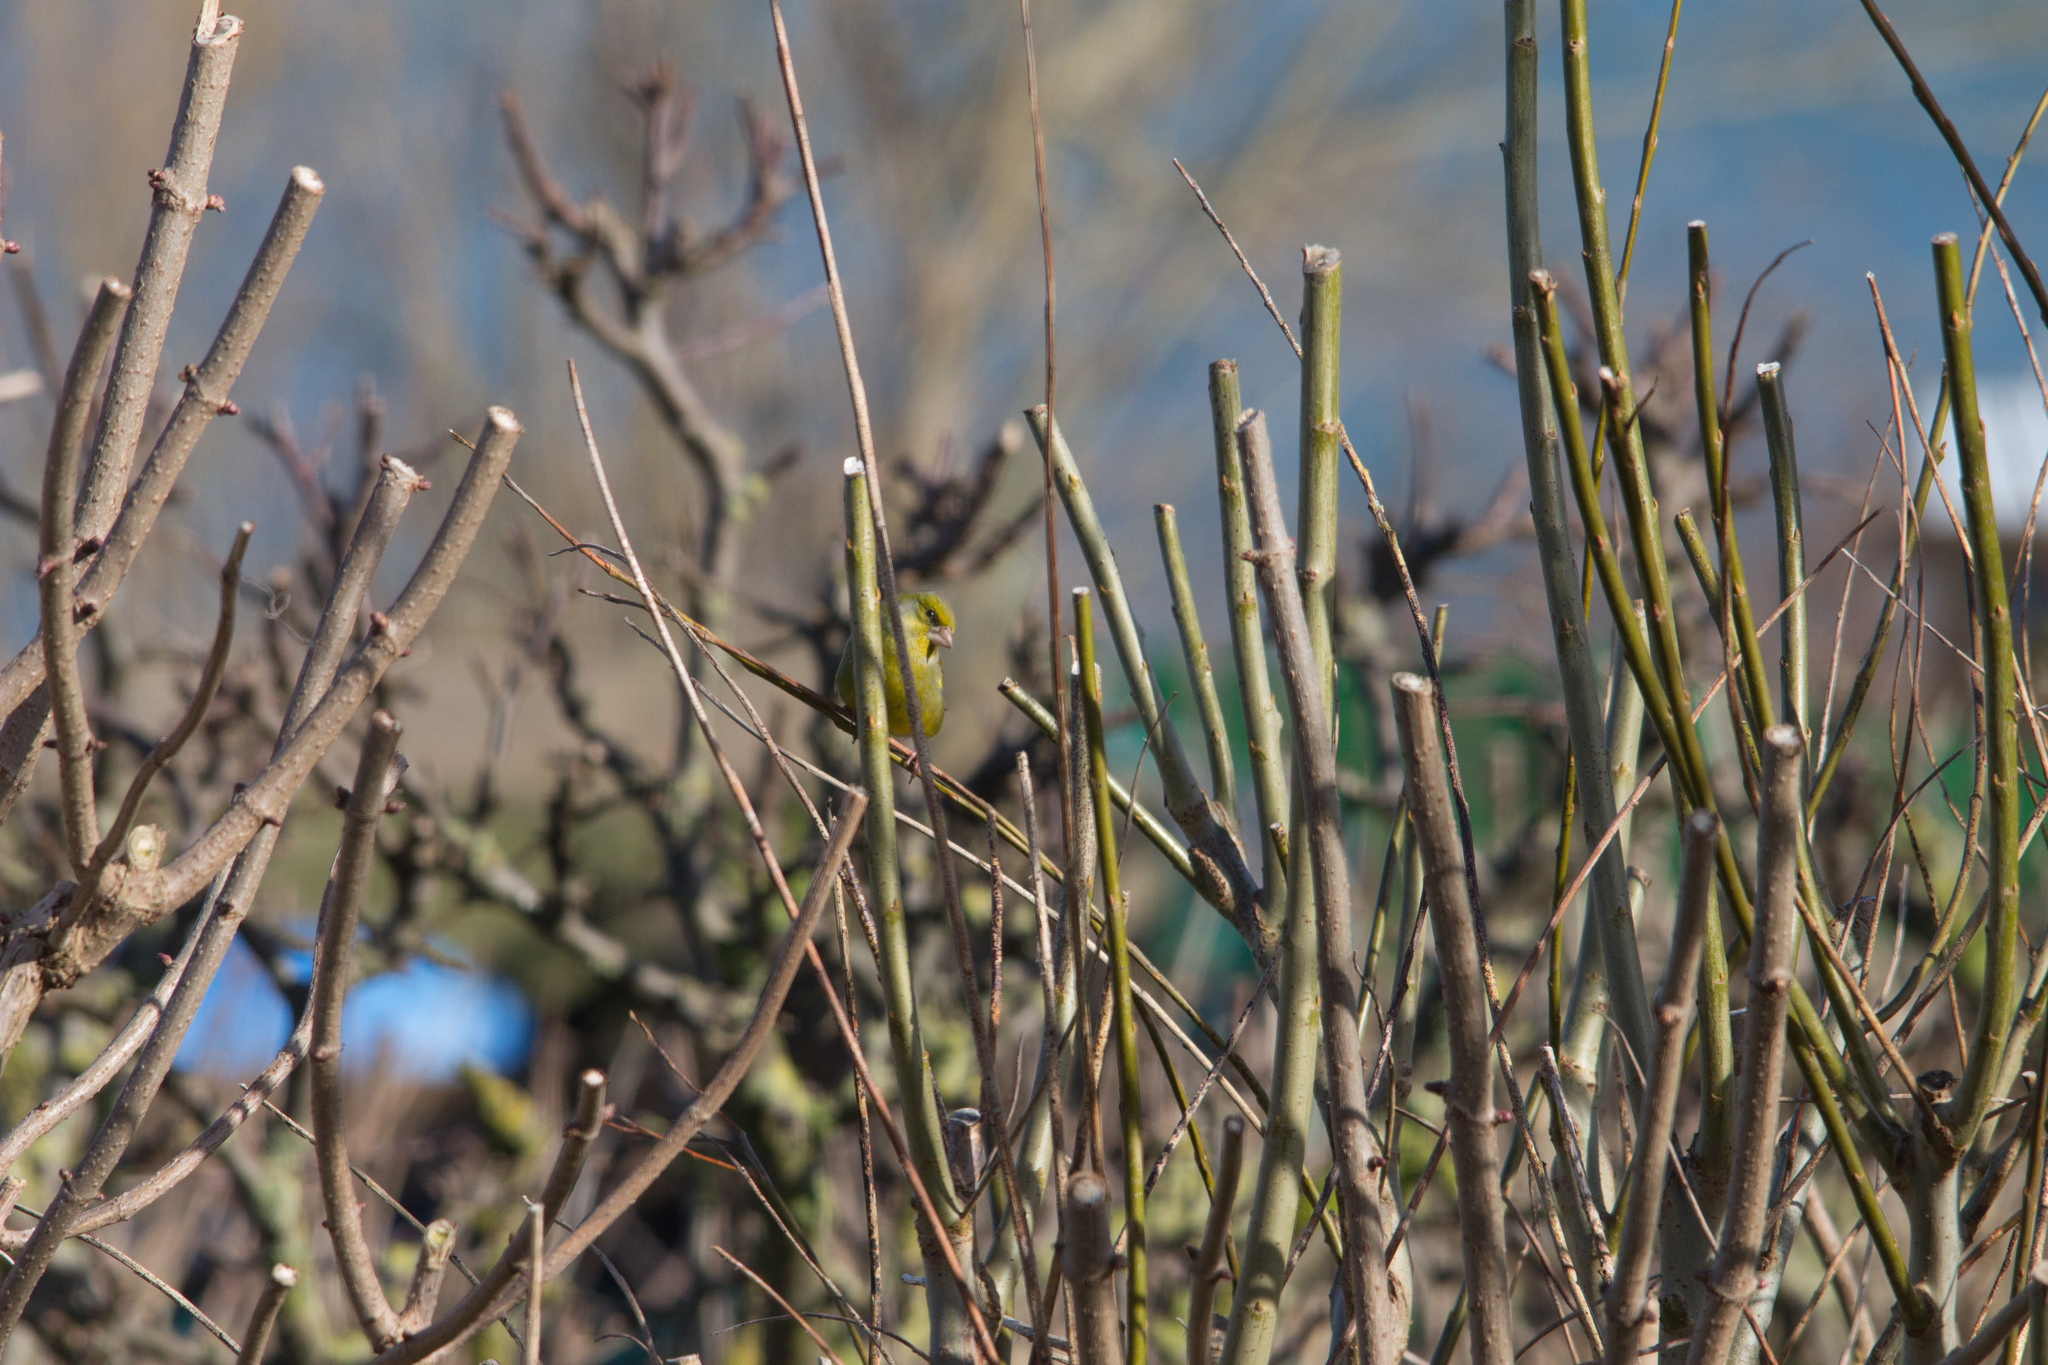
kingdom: Plantae
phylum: Tracheophyta
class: Liliopsida
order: Poales
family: Poaceae
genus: Chloris
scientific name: Chloris chloris
